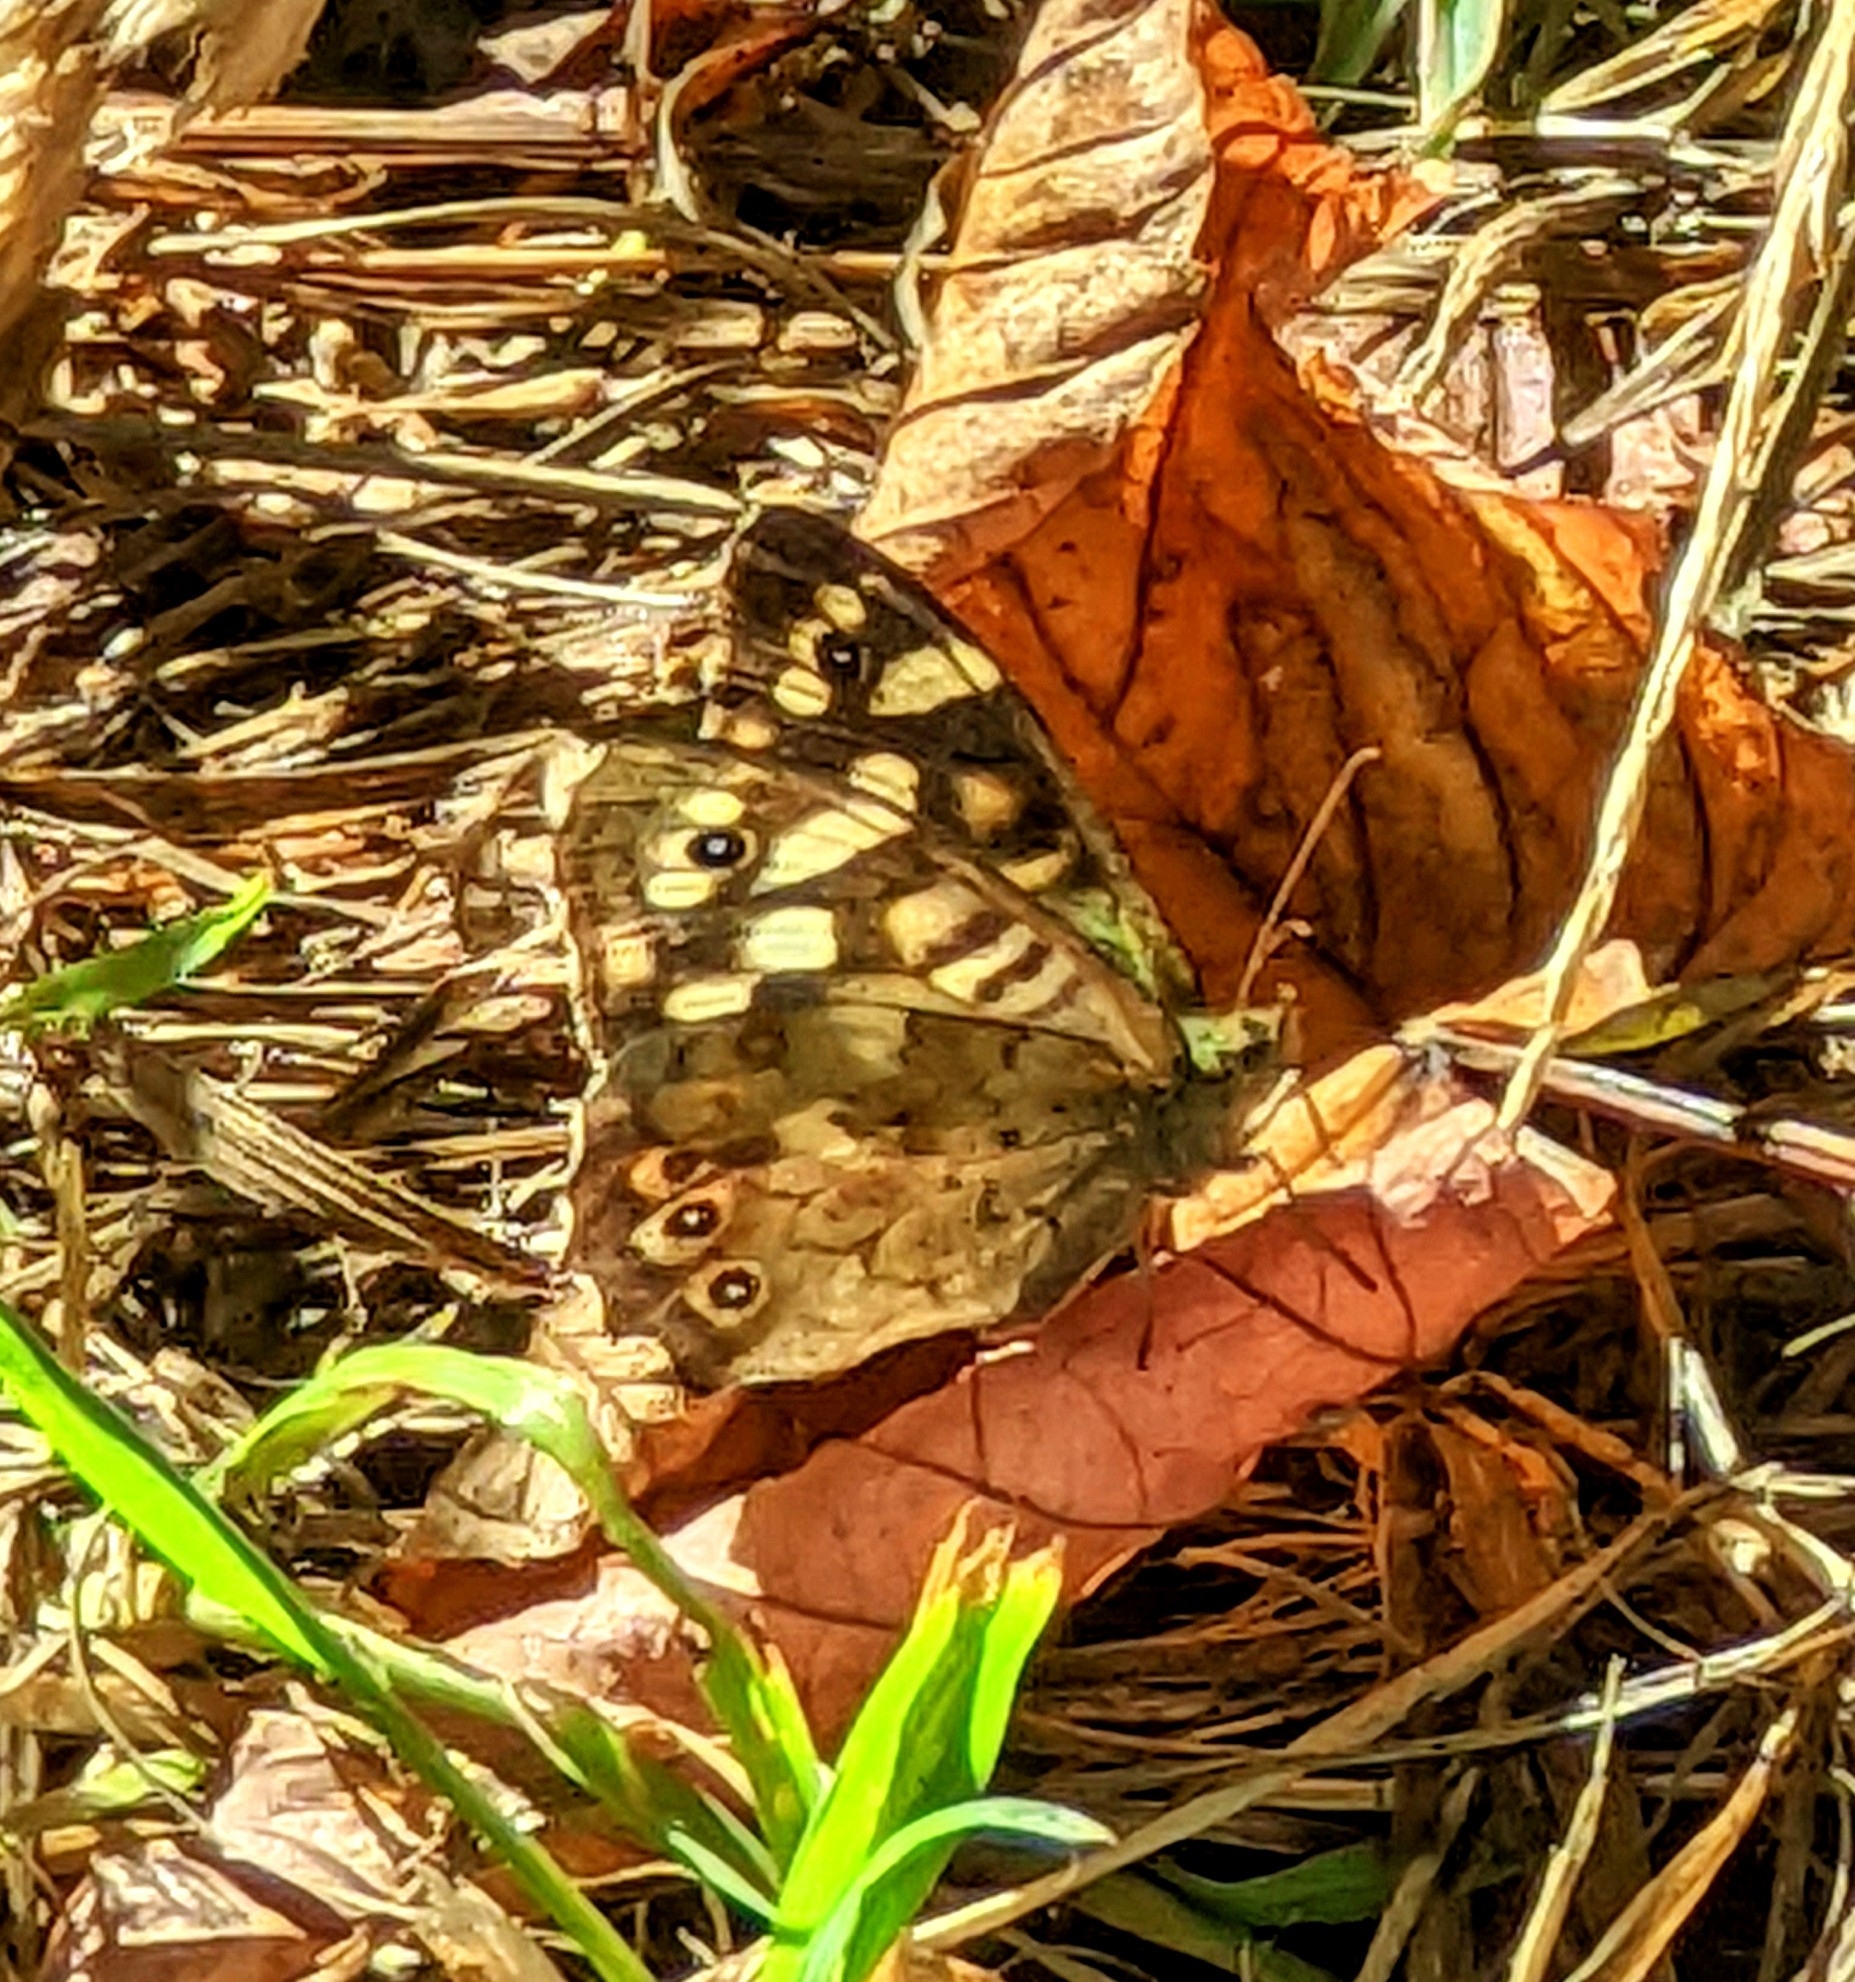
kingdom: Animalia
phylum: Arthropoda
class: Insecta
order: Lepidoptera
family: Nymphalidae
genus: Pararge
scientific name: Pararge aegeria
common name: Speckled wood
